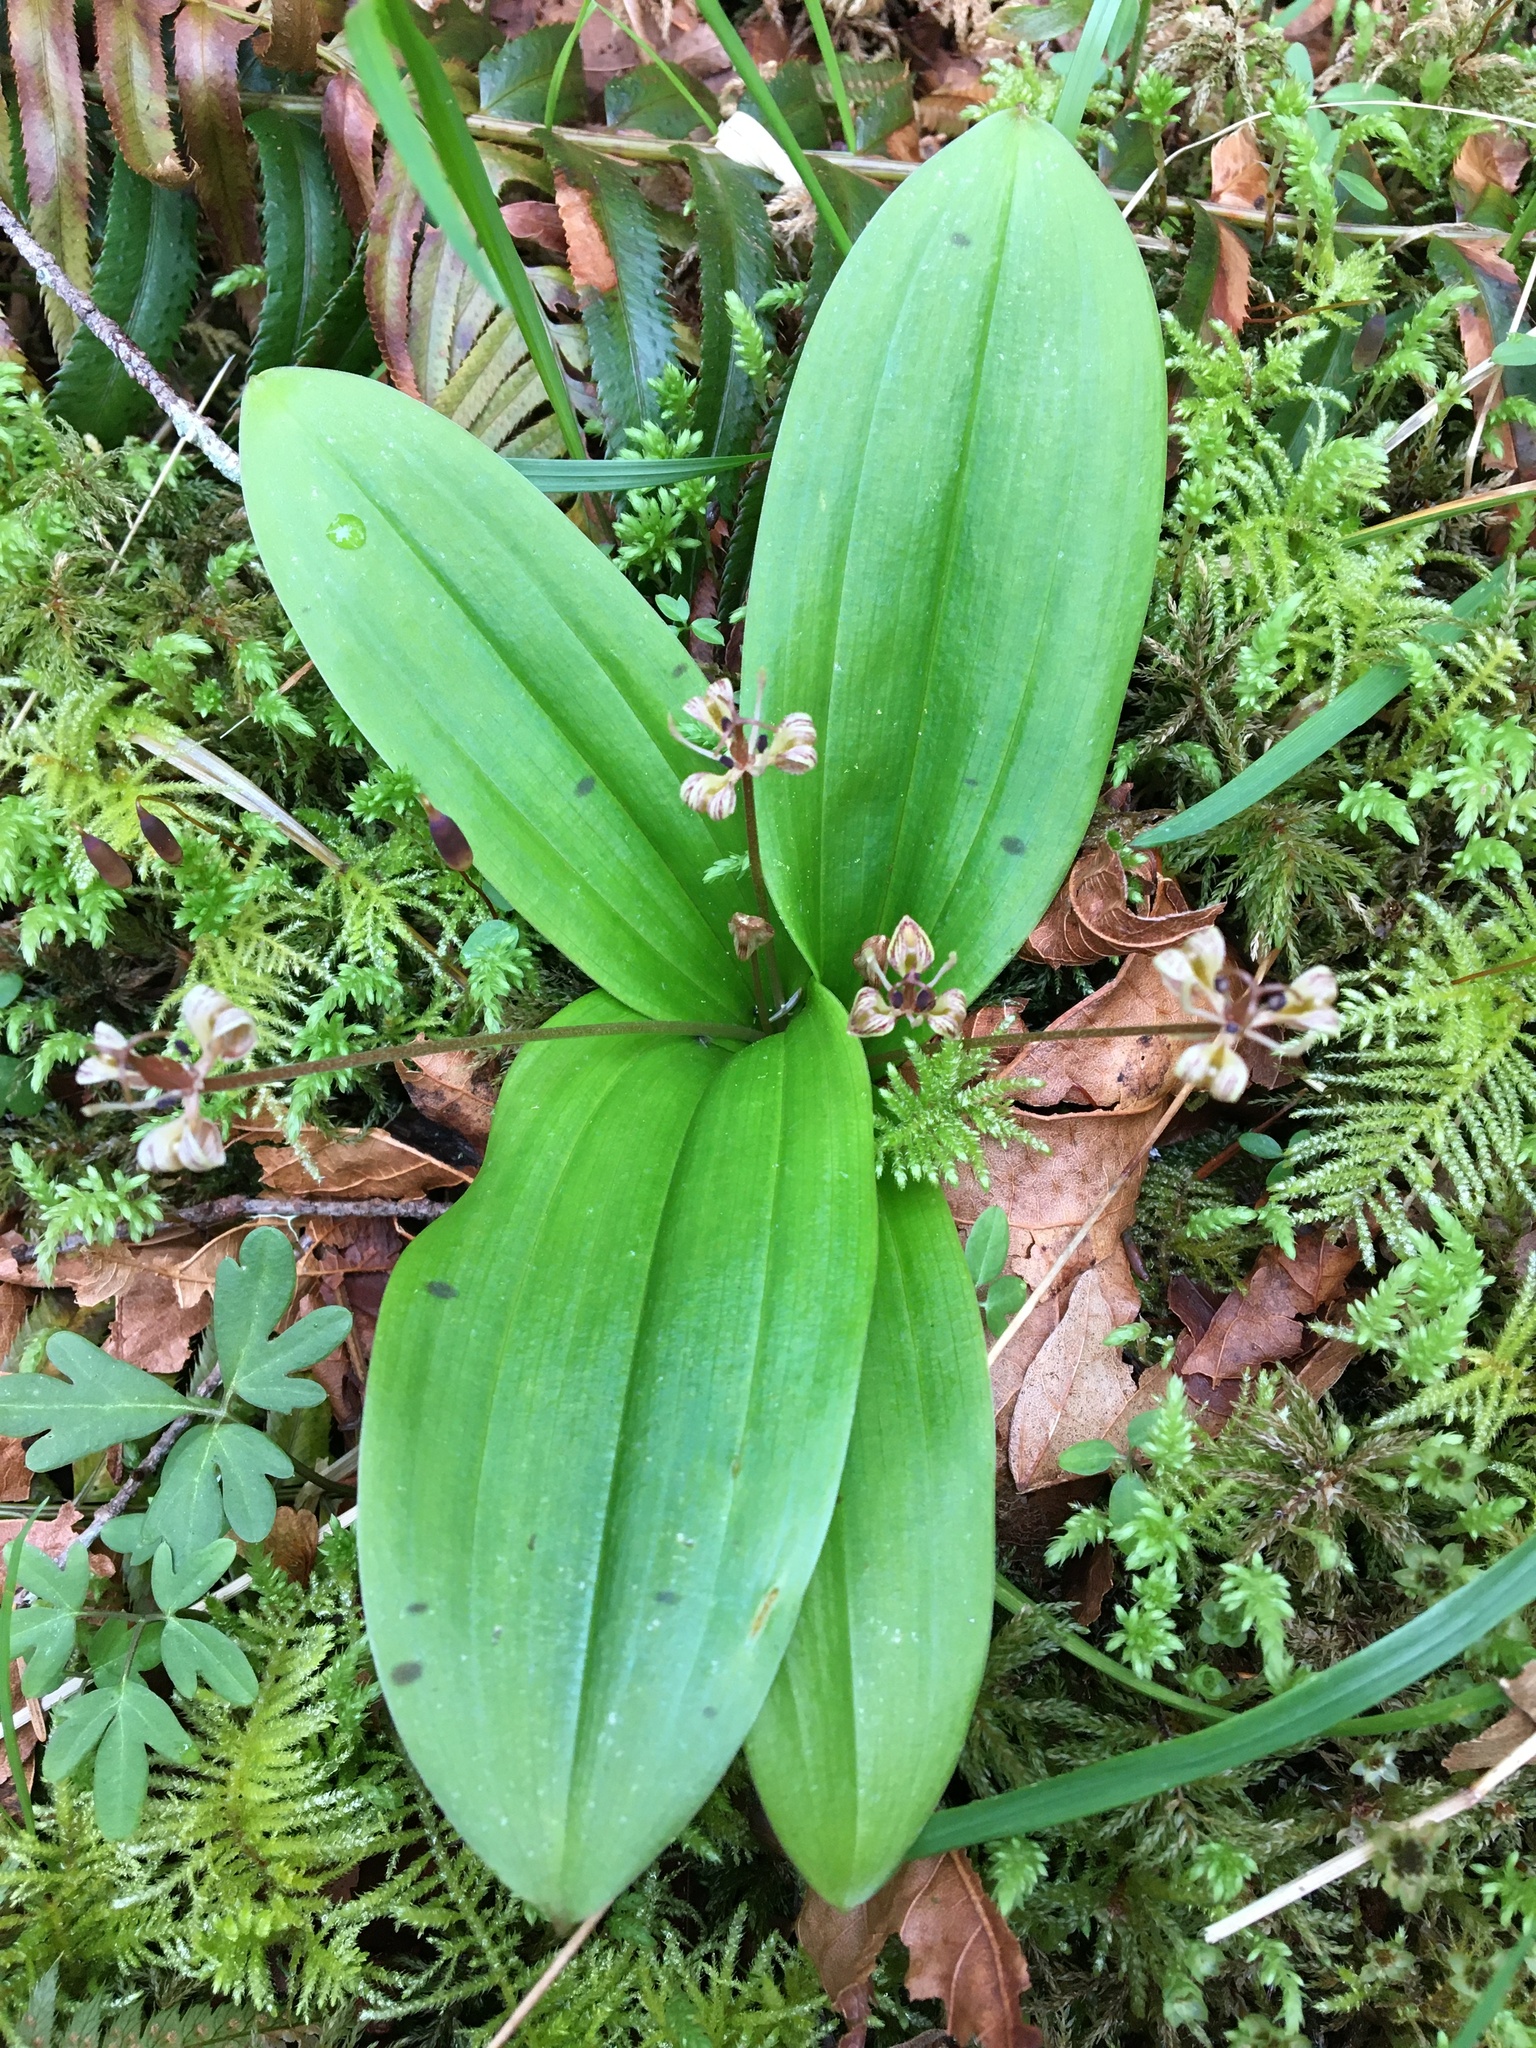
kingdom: Plantae
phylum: Tracheophyta
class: Liliopsida
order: Liliales
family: Liliaceae
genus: Scoliopus
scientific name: Scoliopus hallii
